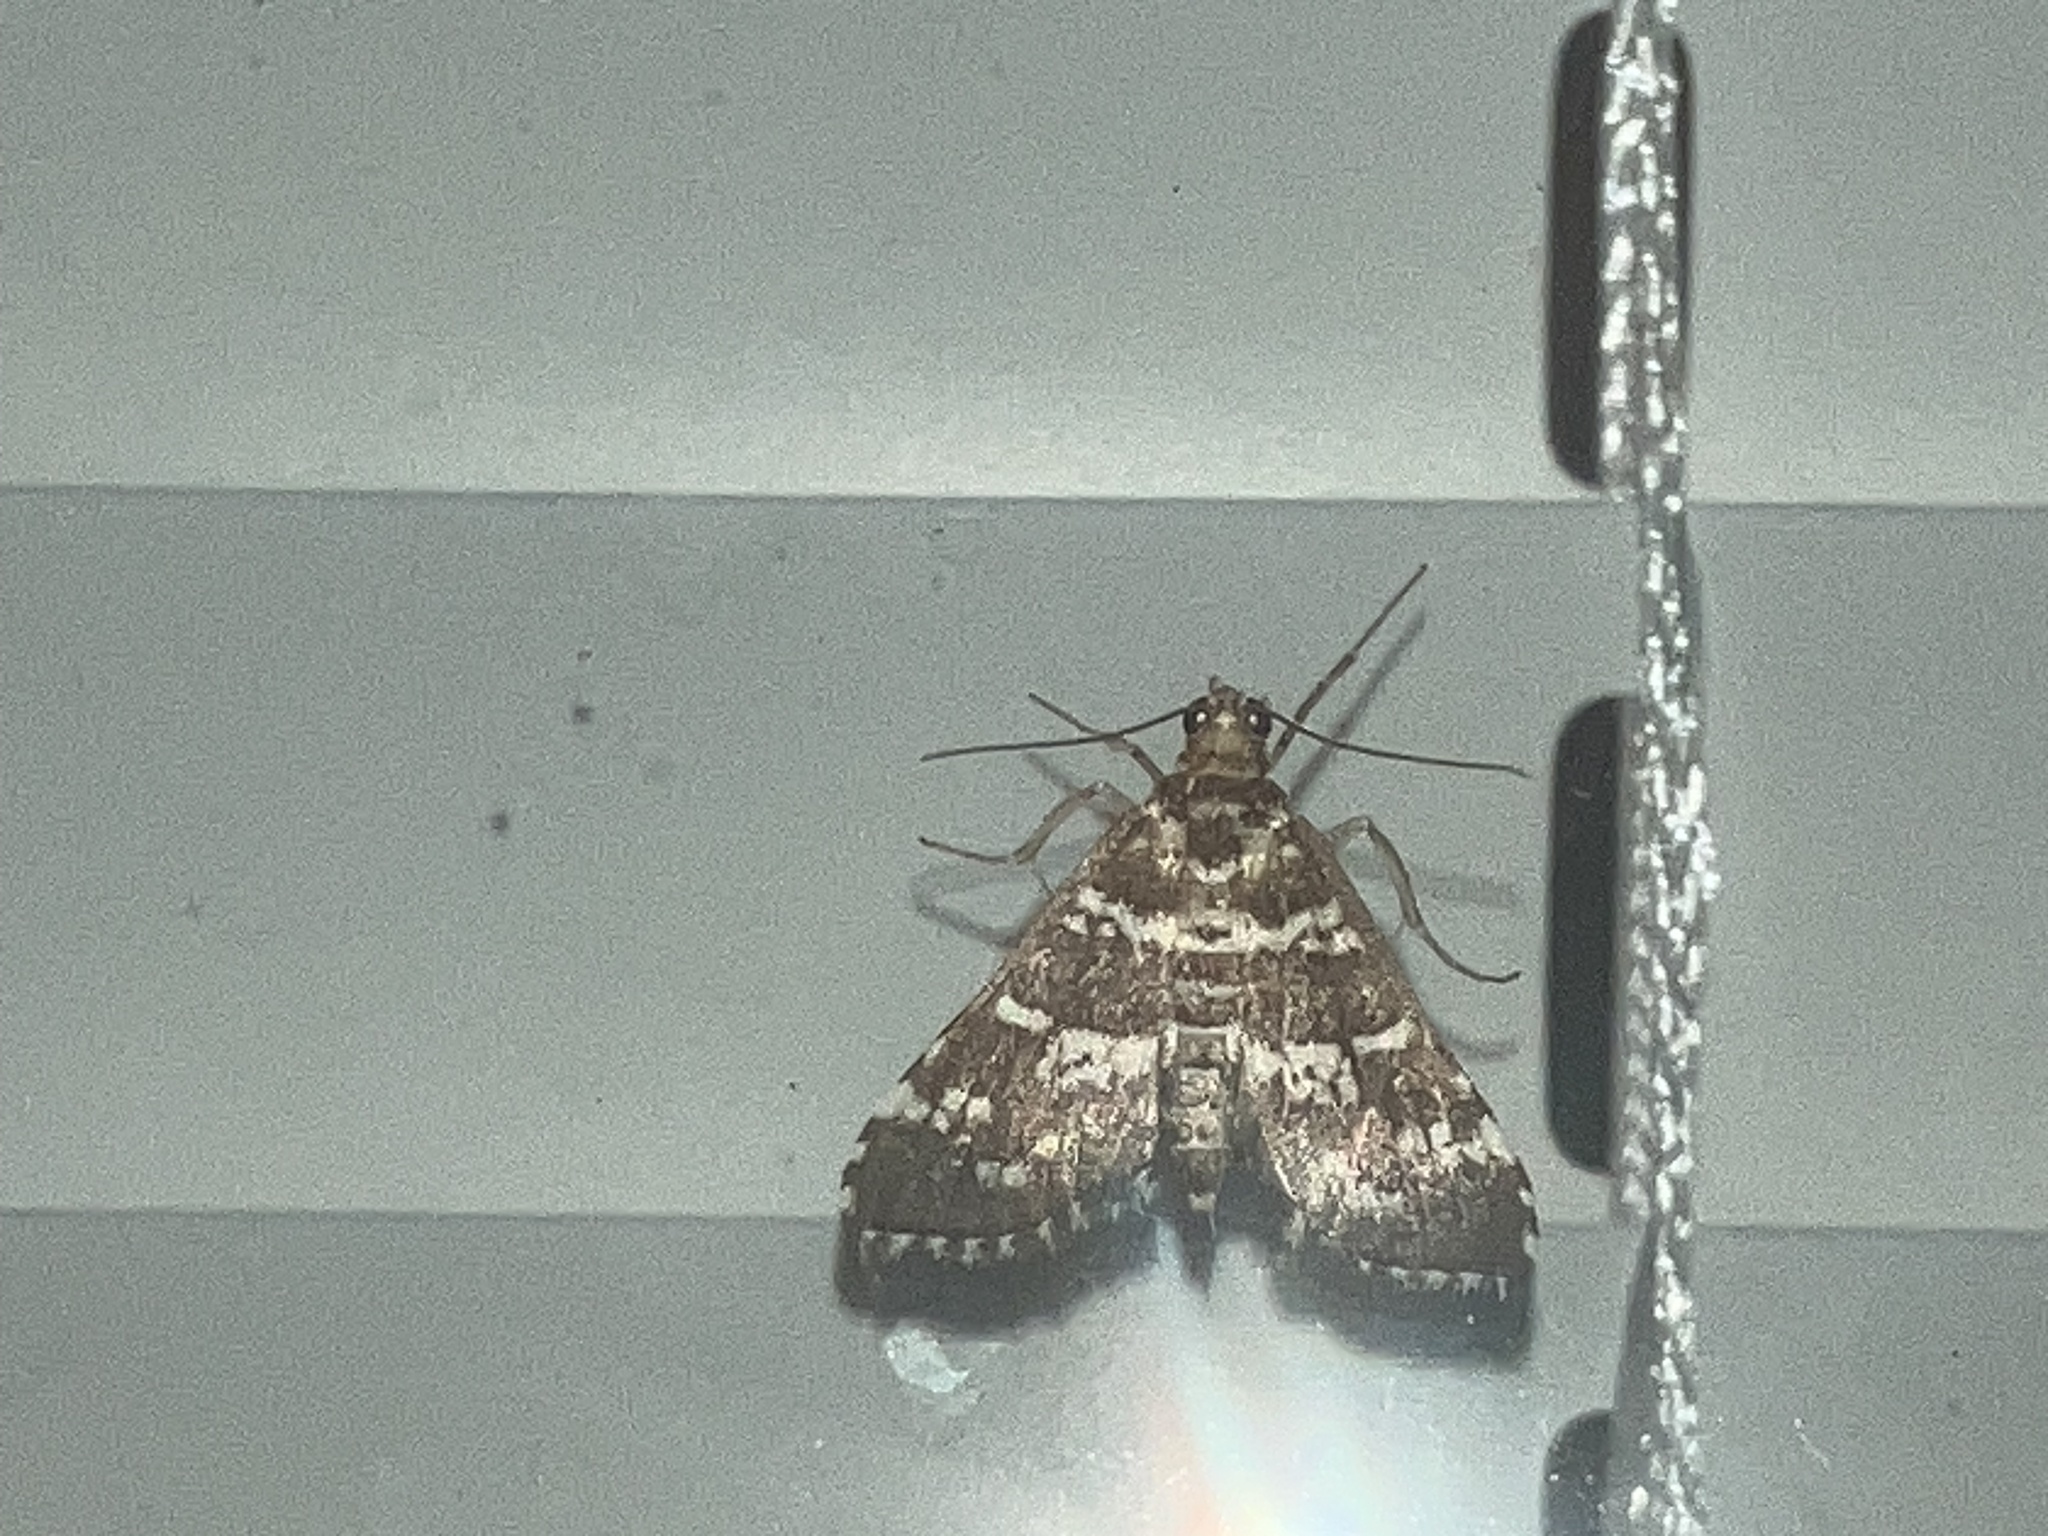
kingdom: Animalia
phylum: Arthropoda
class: Insecta
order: Lepidoptera
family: Crambidae
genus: Samea
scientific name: Samea druchachalis
